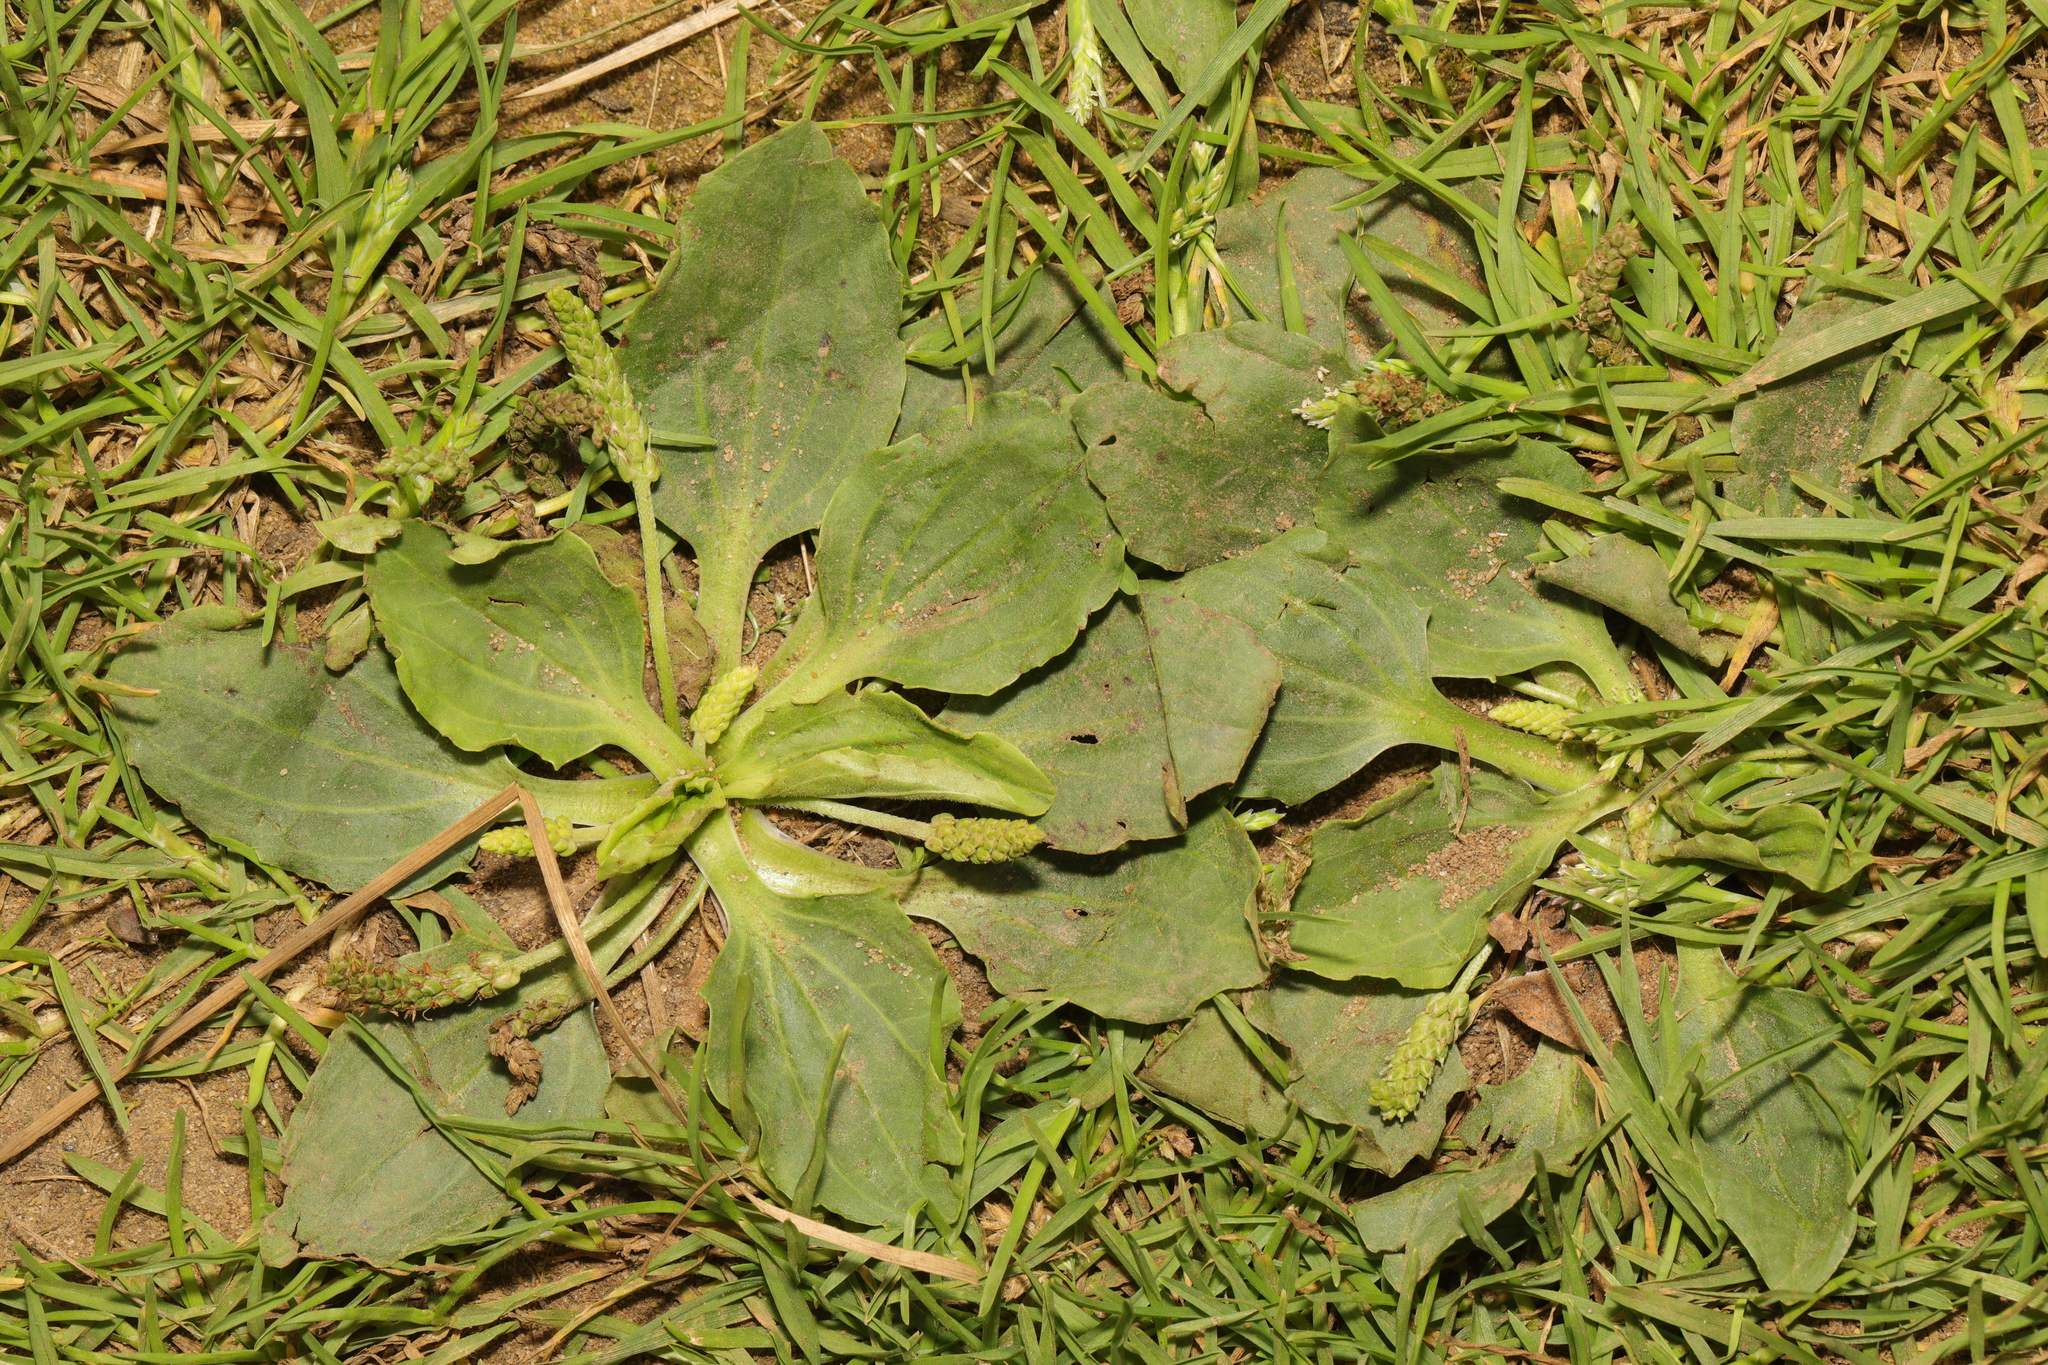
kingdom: Plantae
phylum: Tracheophyta
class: Magnoliopsida
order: Lamiales
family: Plantaginaceae
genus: Plantago
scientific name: Plantago major
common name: Common plantain
